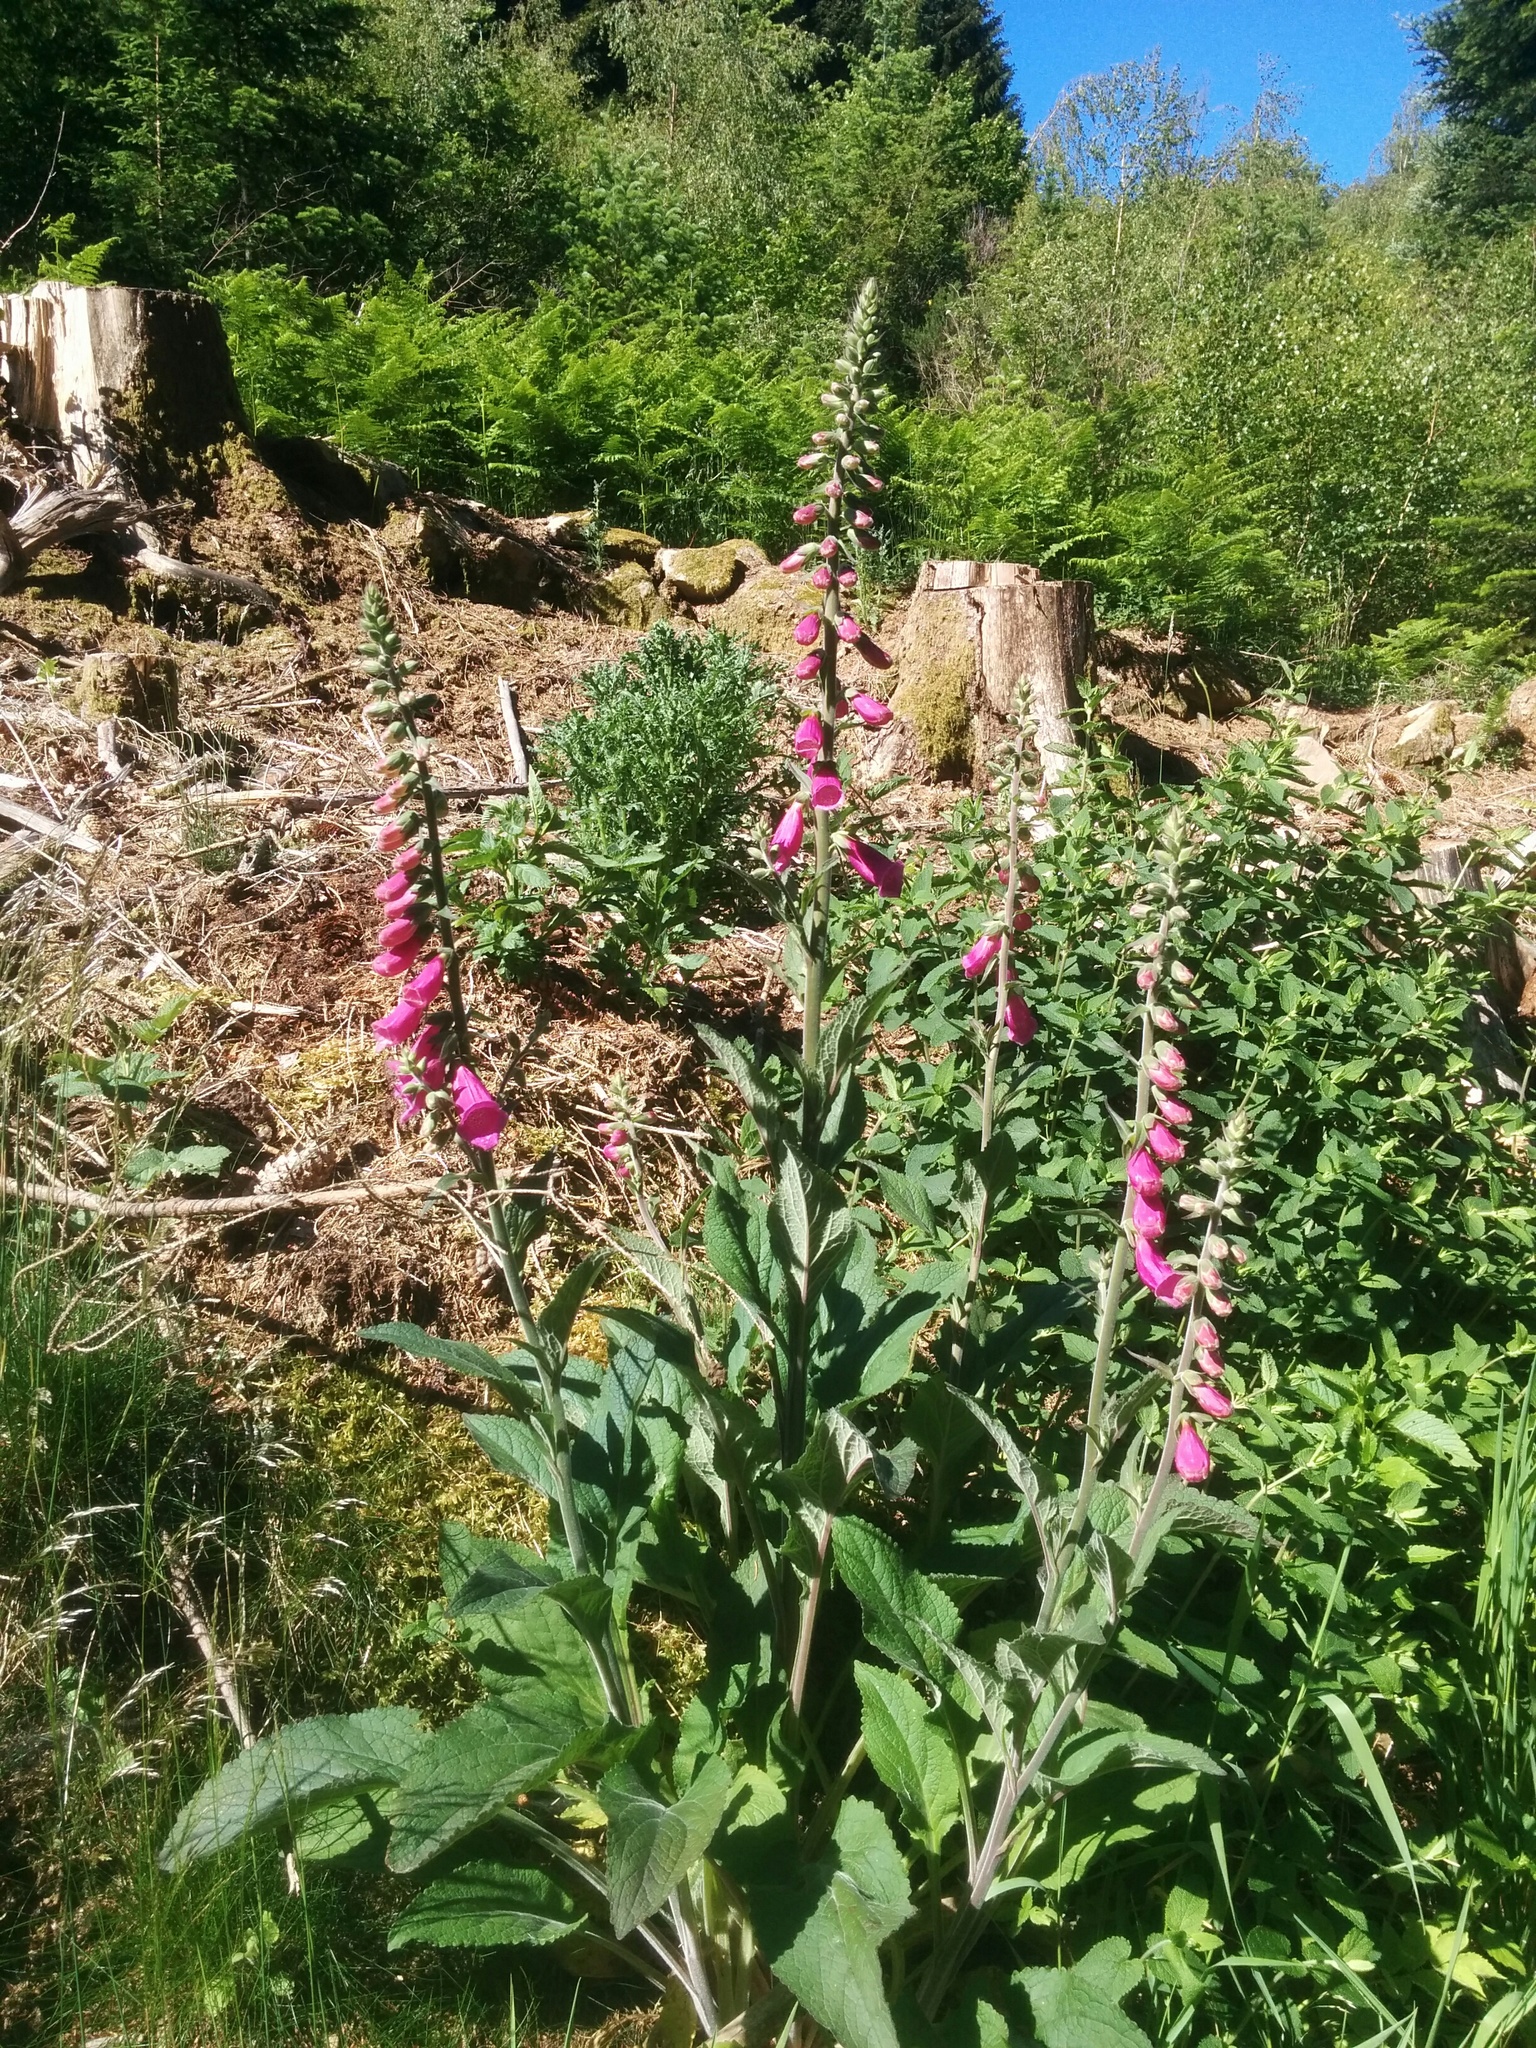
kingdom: Plantae
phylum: Tracheophyta
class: Magnoliopsida
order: Lamiales
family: Plantaginaceae
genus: Digitalis
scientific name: Digitalis purpurea
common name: Foxglove
